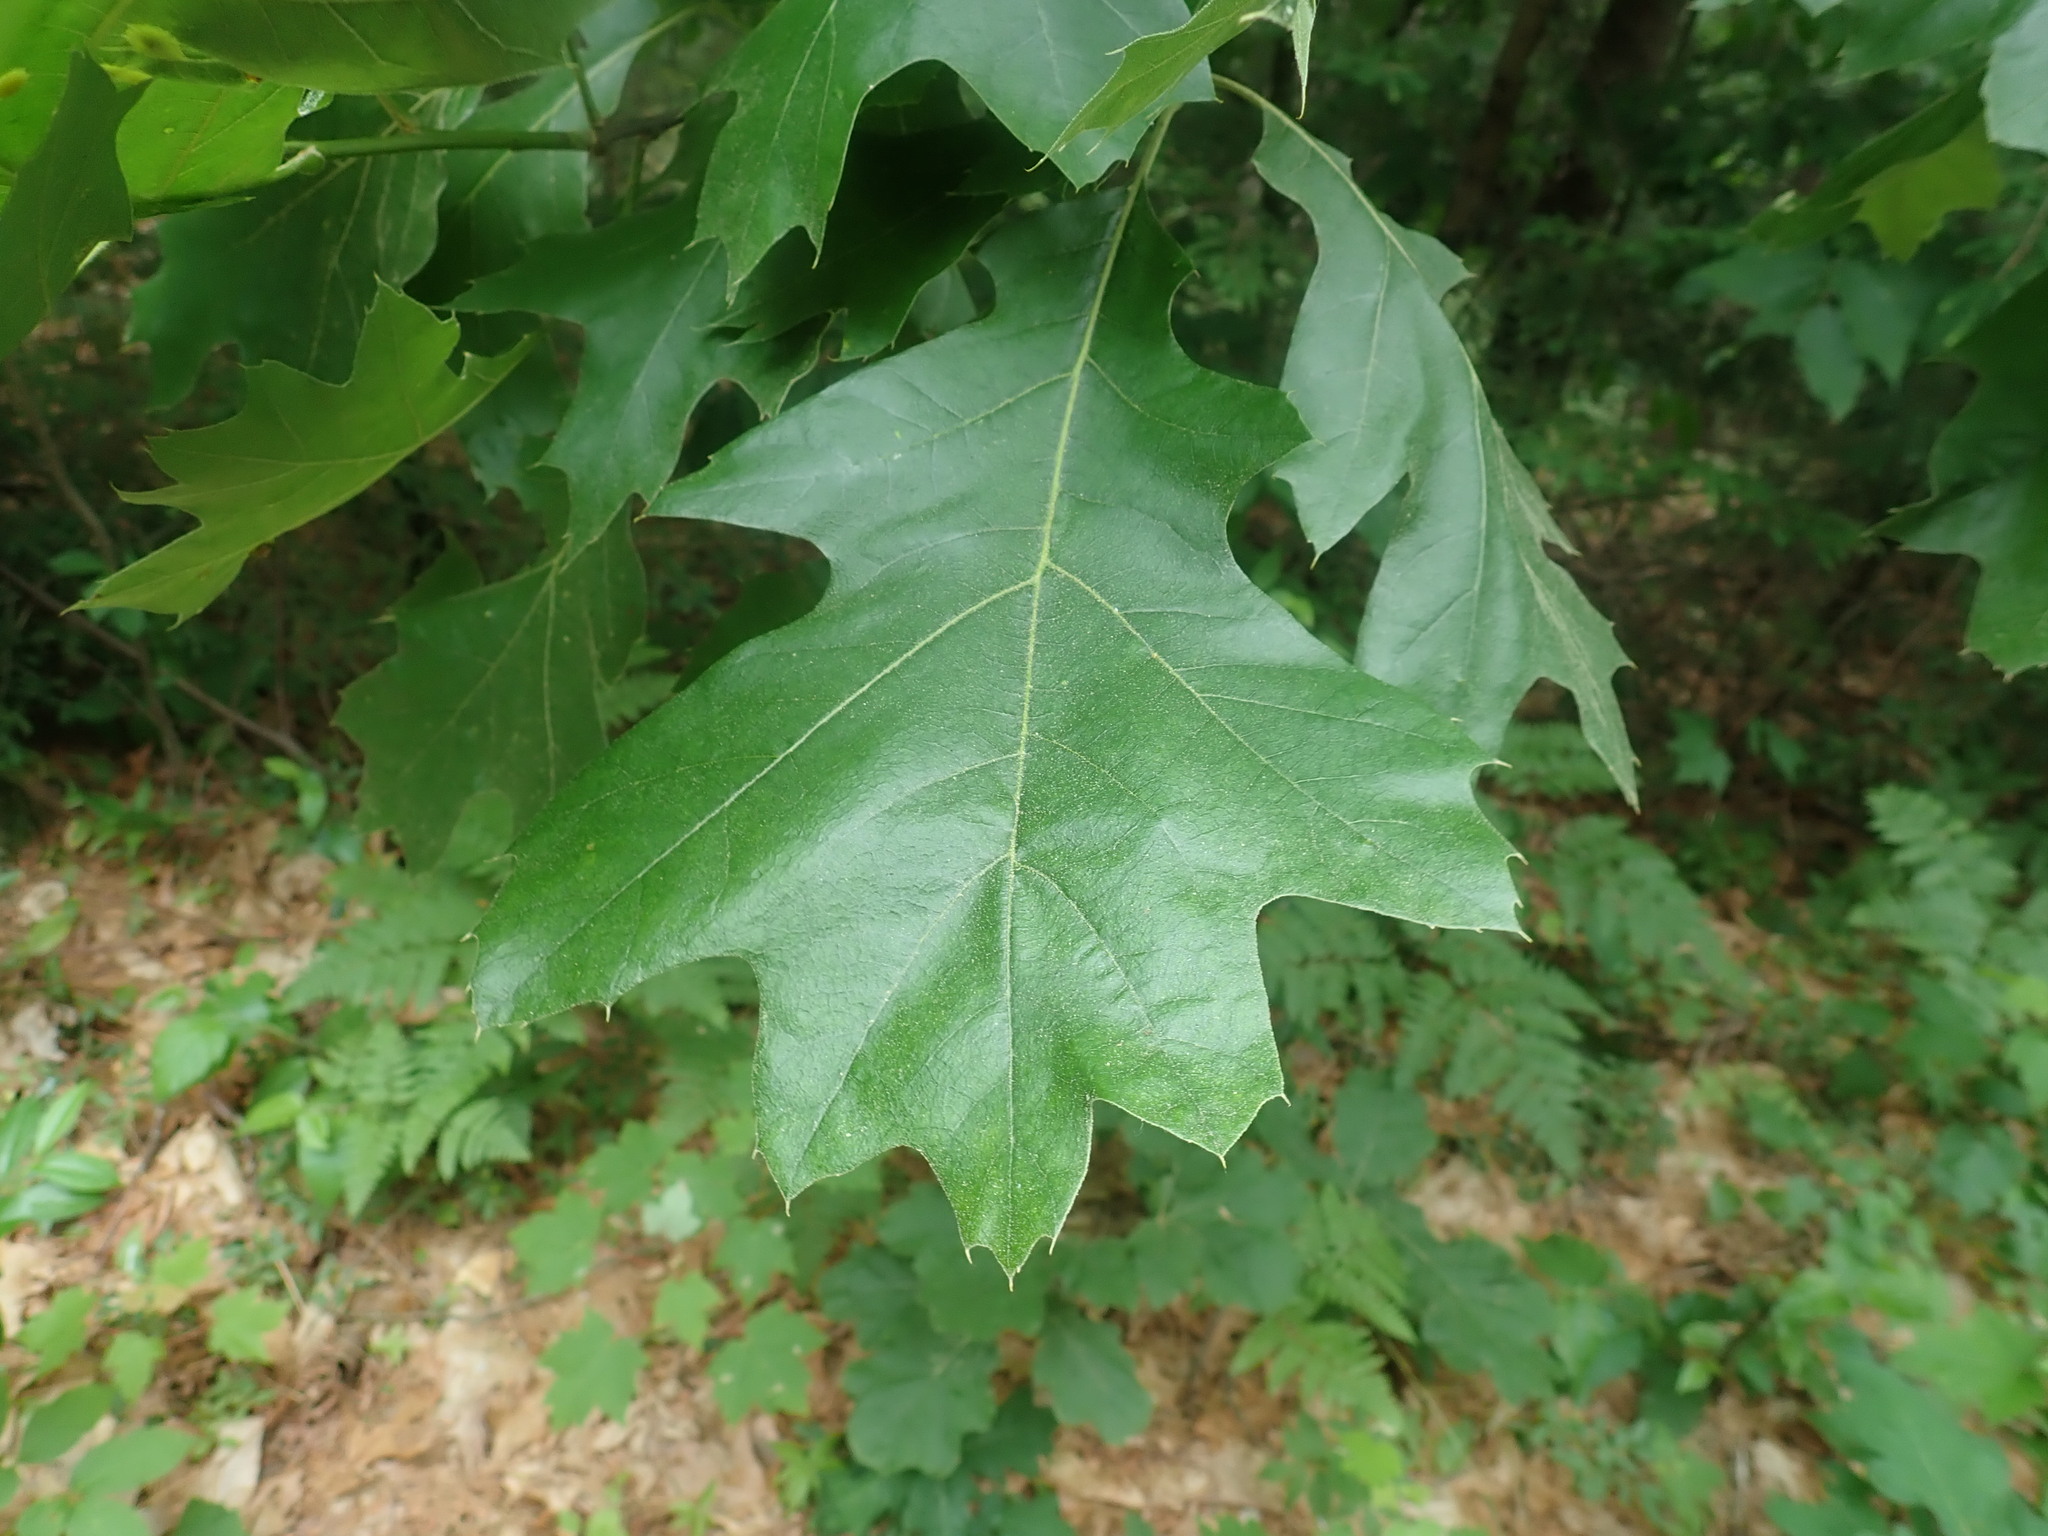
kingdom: Plantae
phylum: Tracheophyta
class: Magnoliopsida
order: Fagales
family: Fagaceae
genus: Quercus
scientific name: Quercus velutina
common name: Black oak
